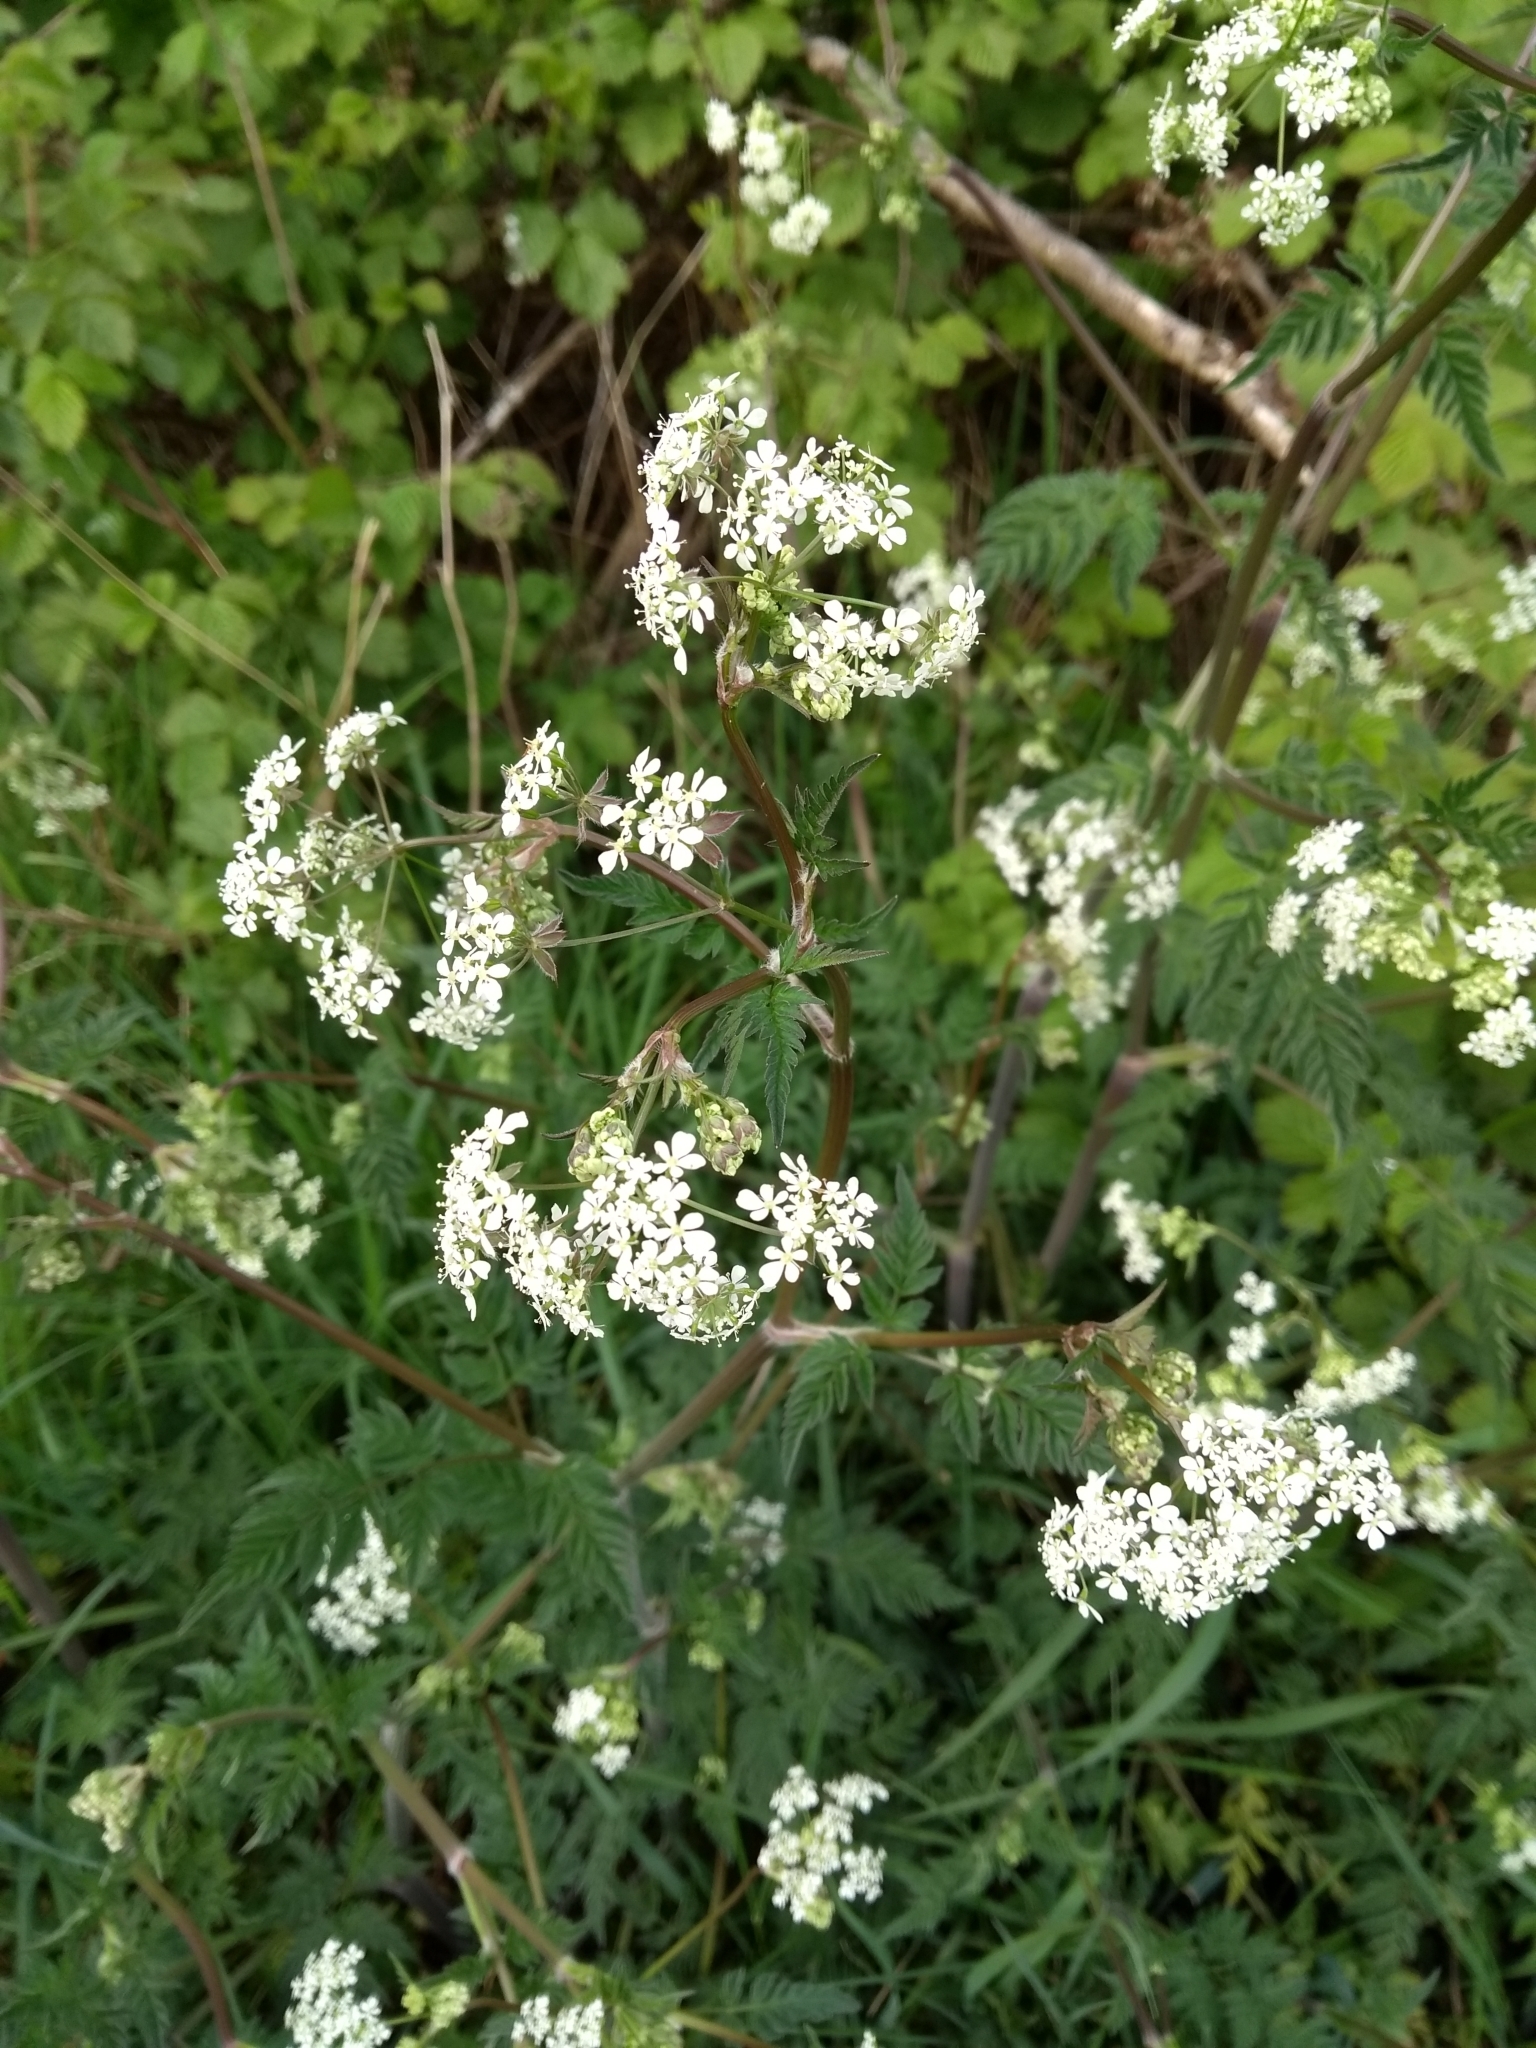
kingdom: Plantae
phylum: Tracheophyta
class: Magnoliopsida
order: Apiales
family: Apiaceae
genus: Anthriscus
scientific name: Anthriscus sylvestris
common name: Cow parsley
